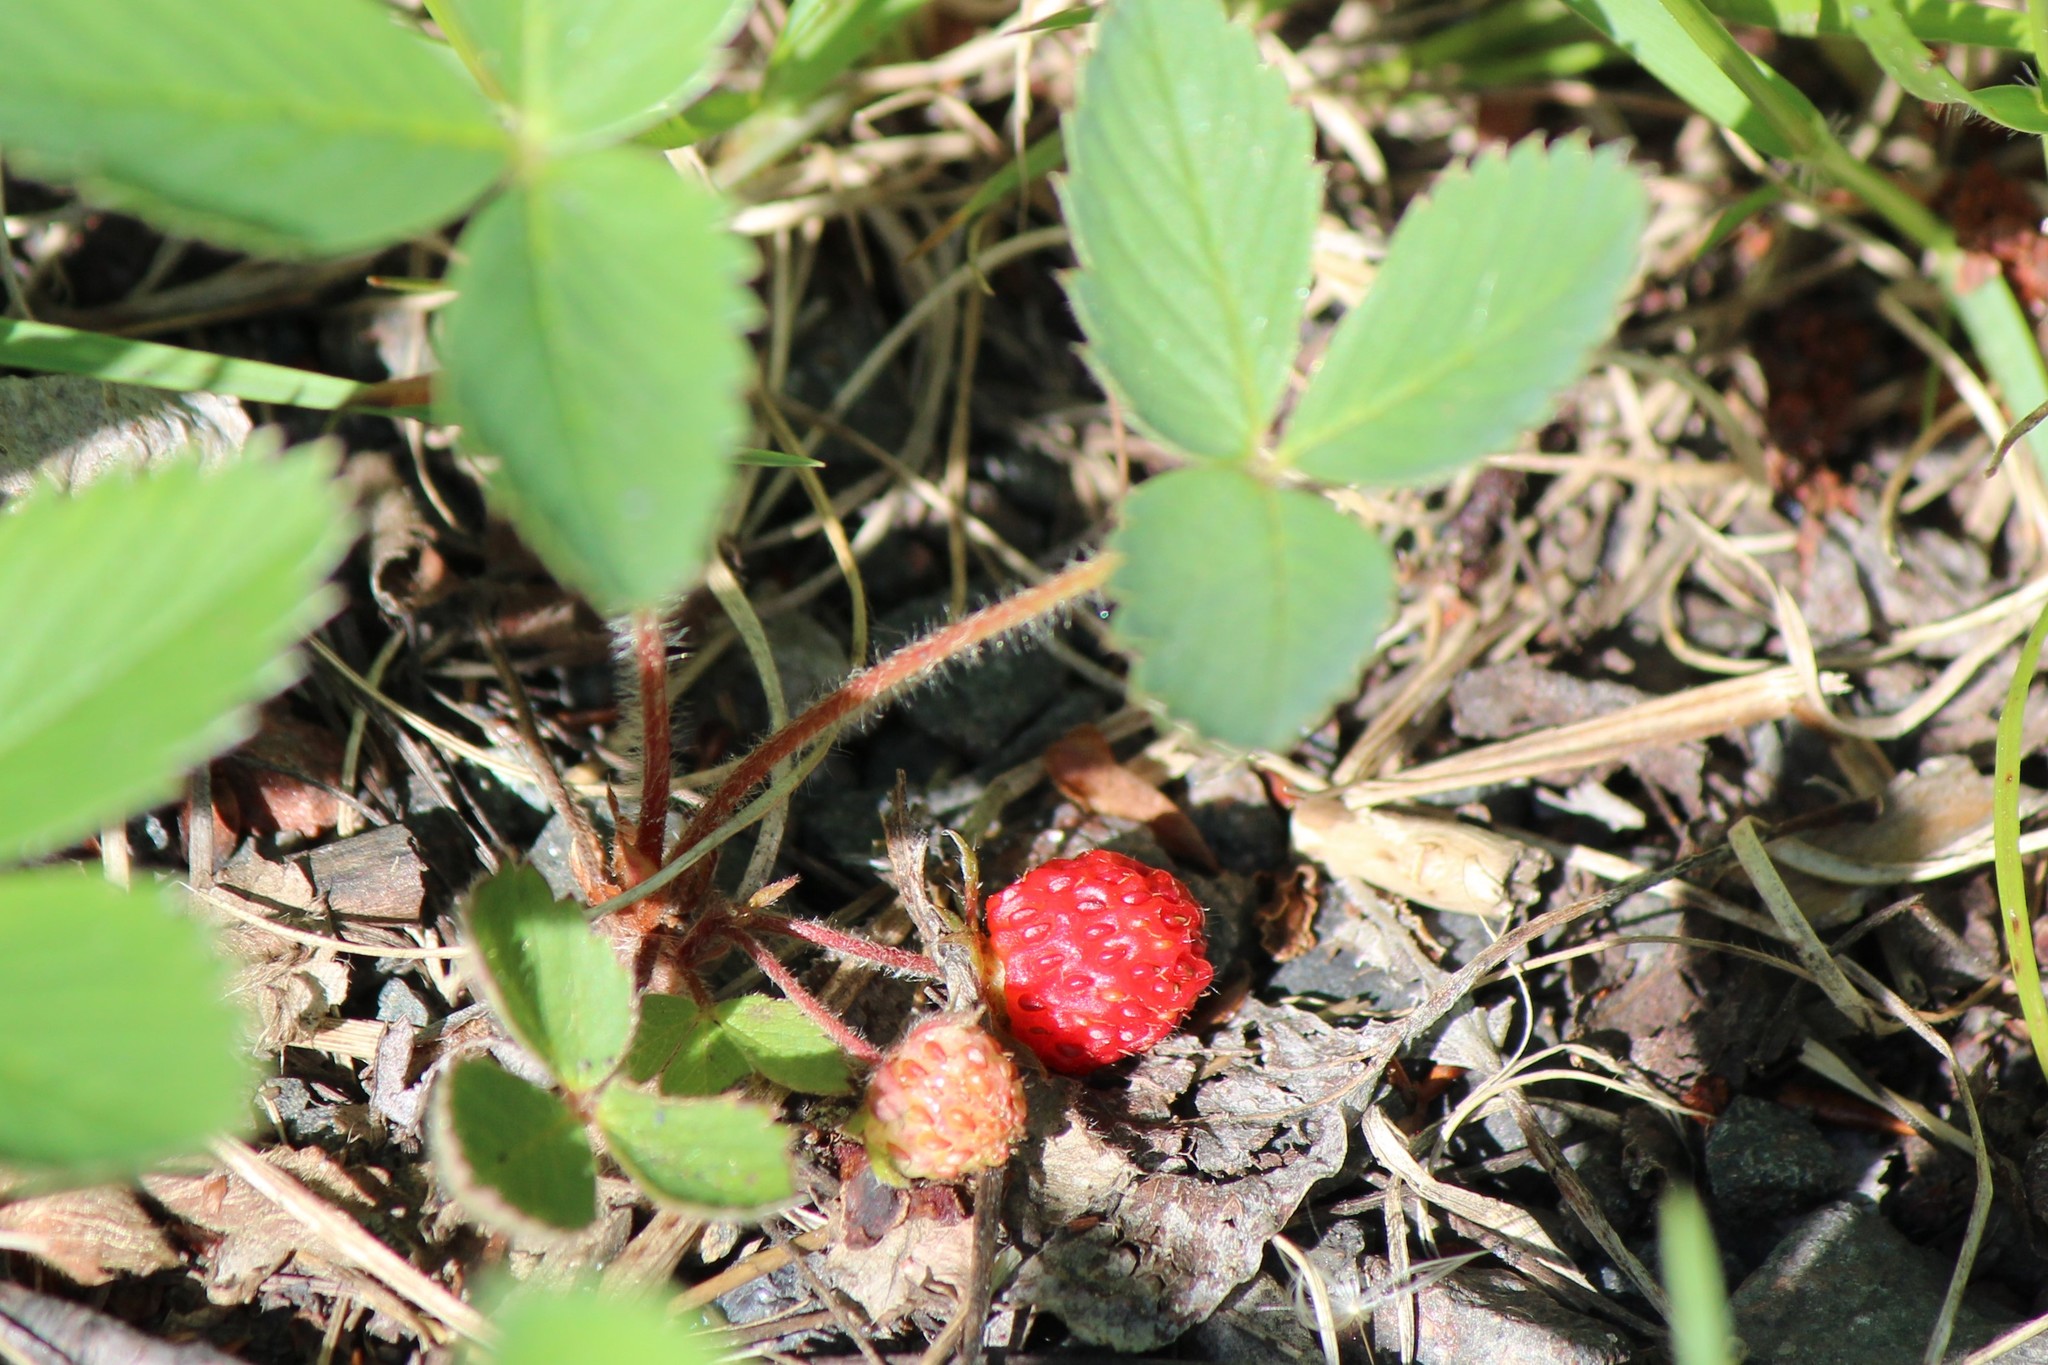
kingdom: Plantae
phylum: Tracheophyta
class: Magnoliopsida
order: Rosales
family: Rosaceae
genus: Fragaria
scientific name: Fragaria virginiana
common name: Thickleaved wild strawberry
